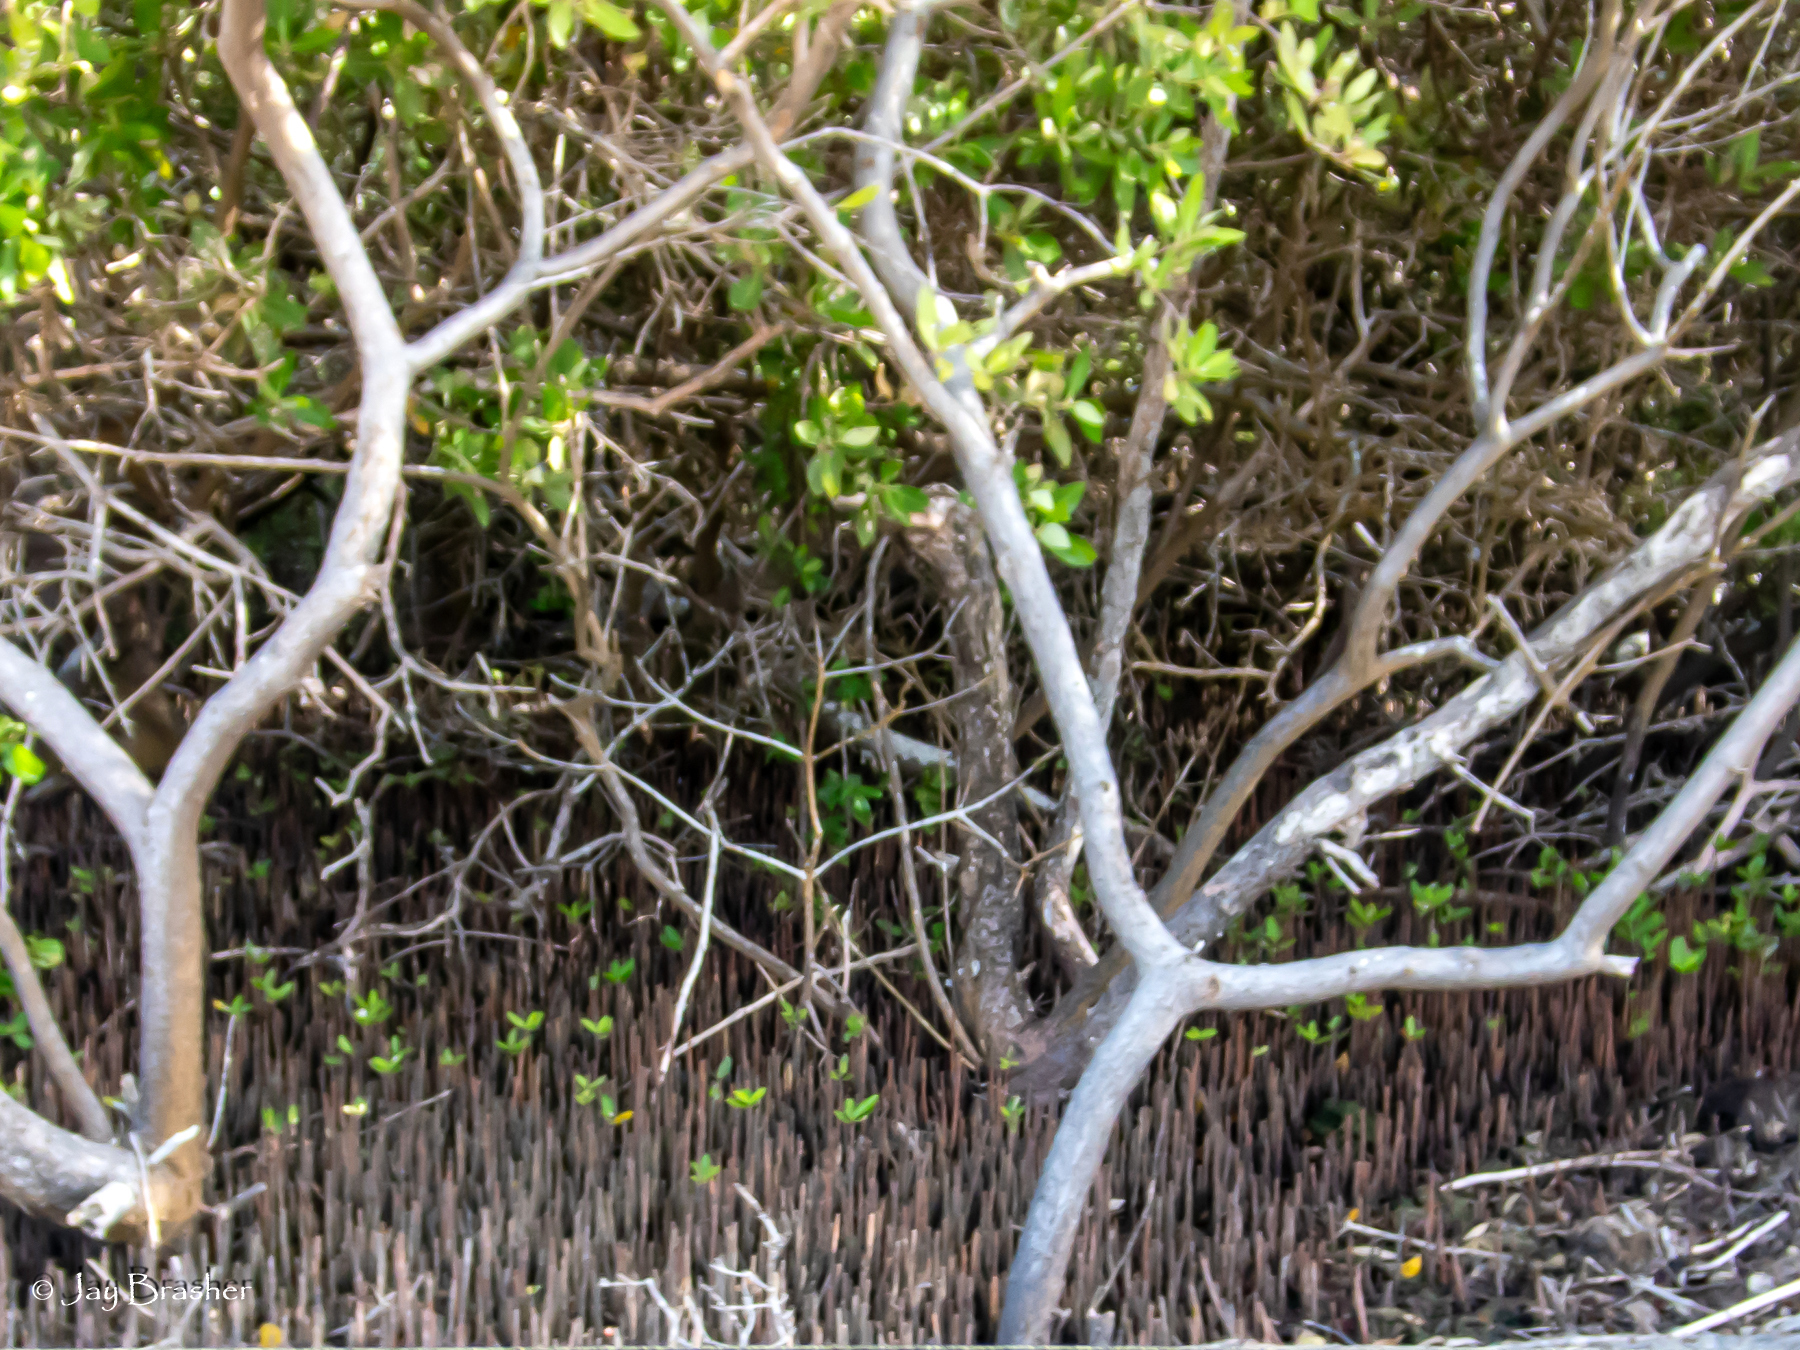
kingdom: Plantae
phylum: Tracheophyta
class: Magnoliopsida
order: Lamiales
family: Acanthaceae
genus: Avicennia
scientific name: Avicennia germinans
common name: Black mangrove
